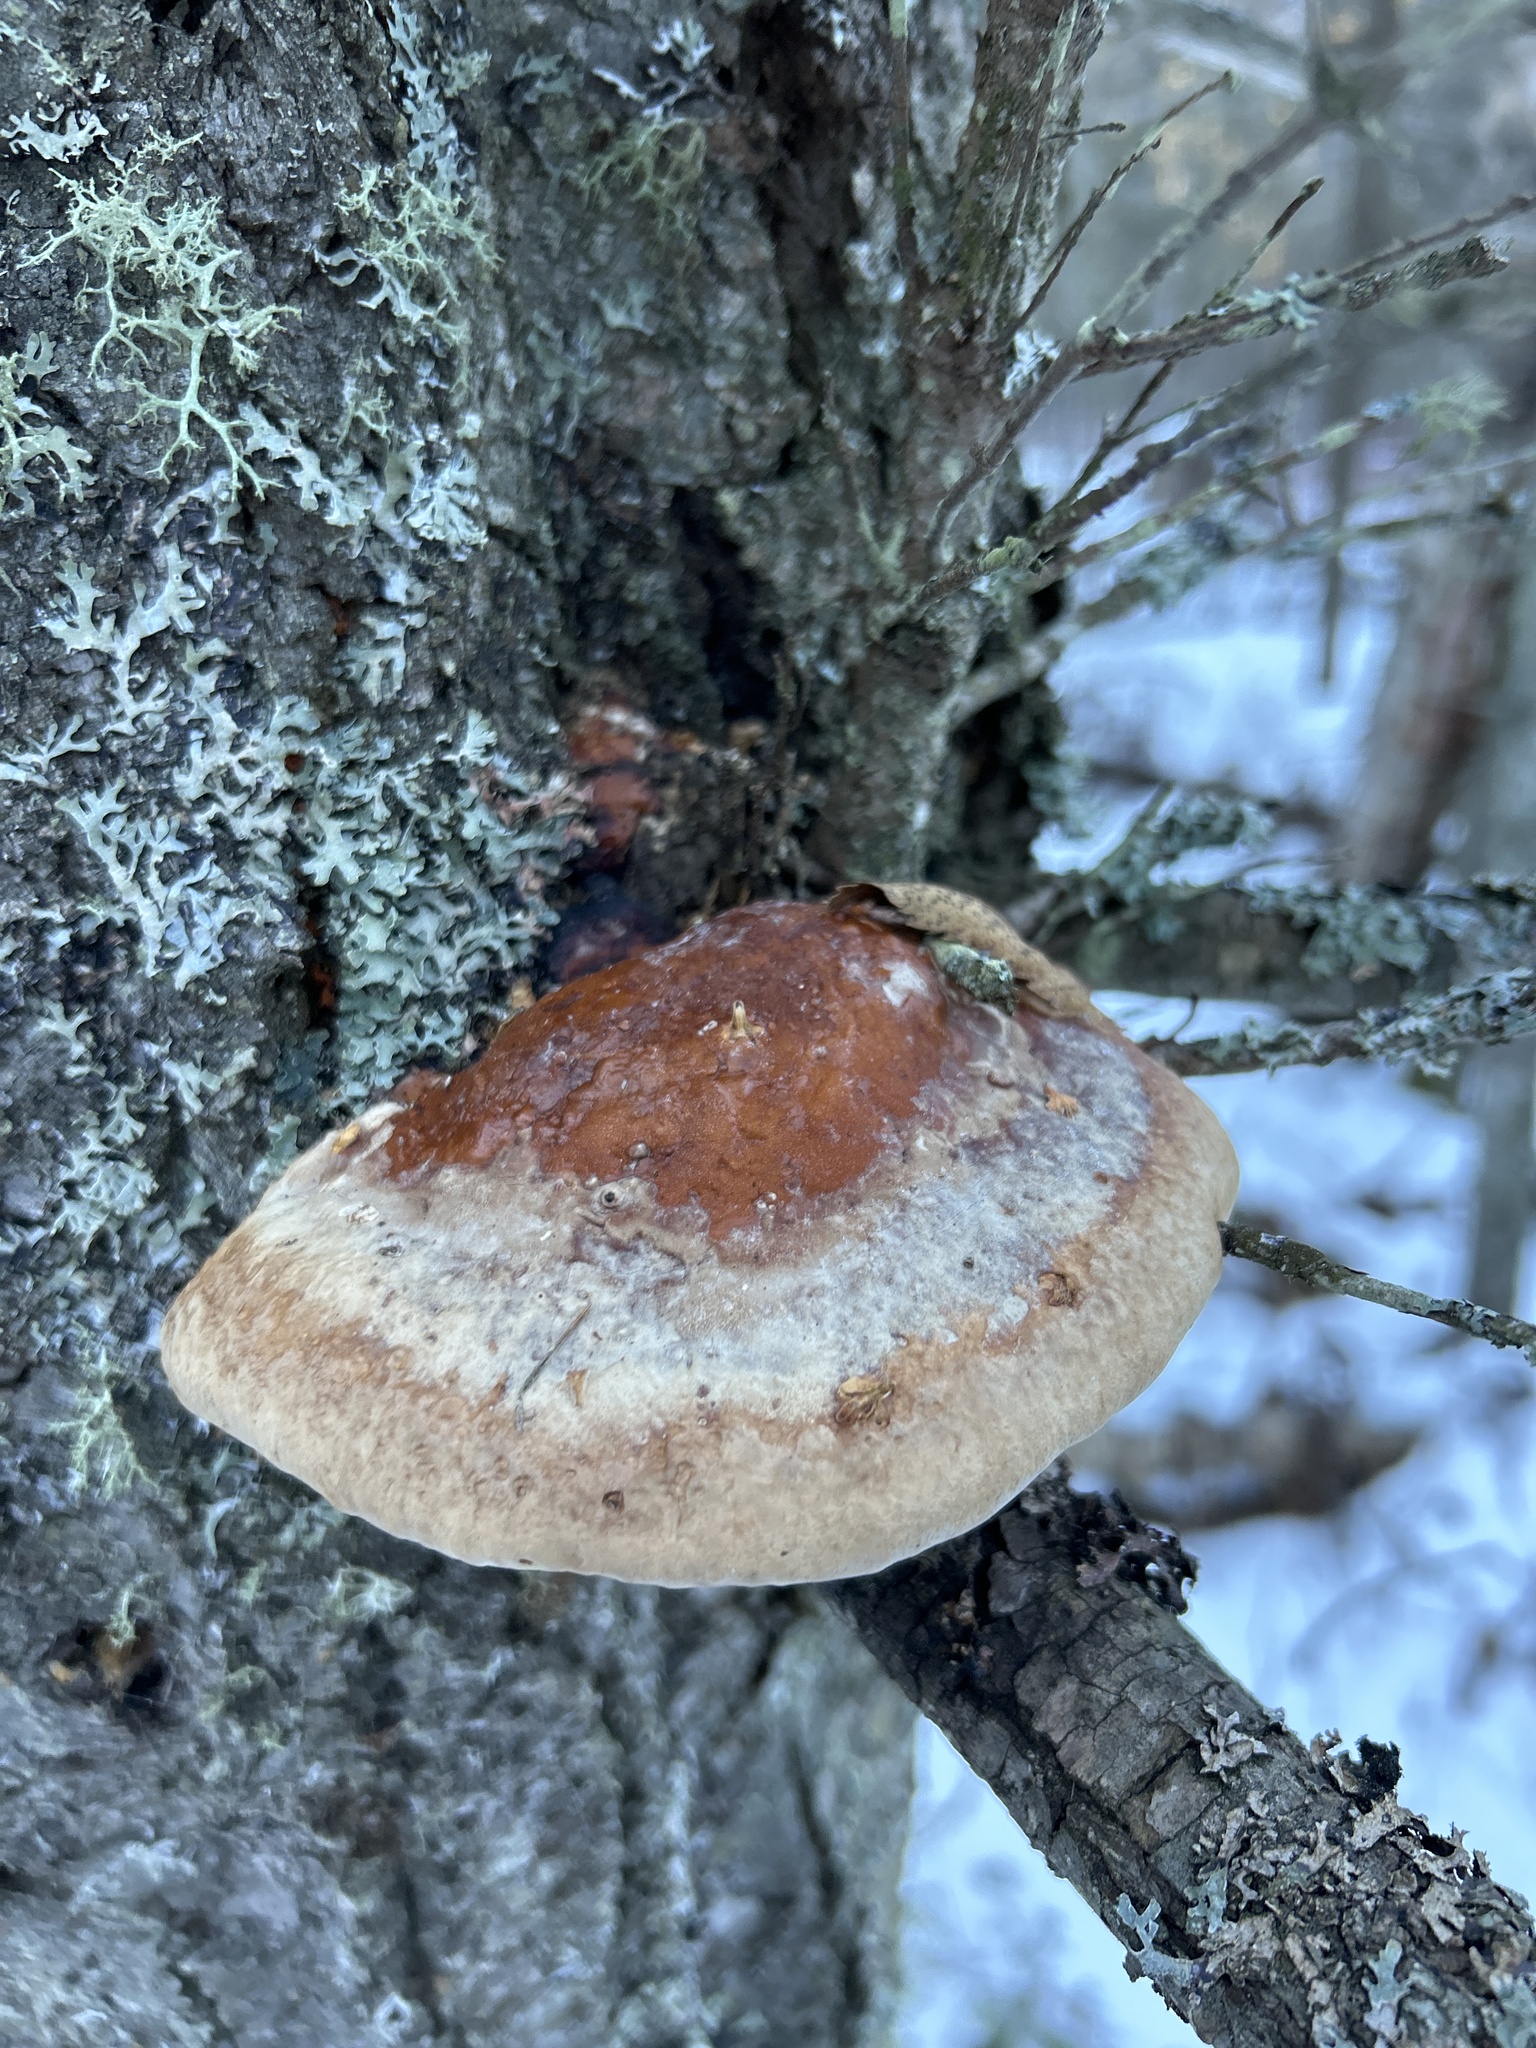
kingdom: Fungi
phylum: Basidiomycota
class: Agaricomycetes
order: Polyporales
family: Fomitopsidaceae
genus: Fomitopsis
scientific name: Fomitopsis mounceae
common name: Northern red belt
